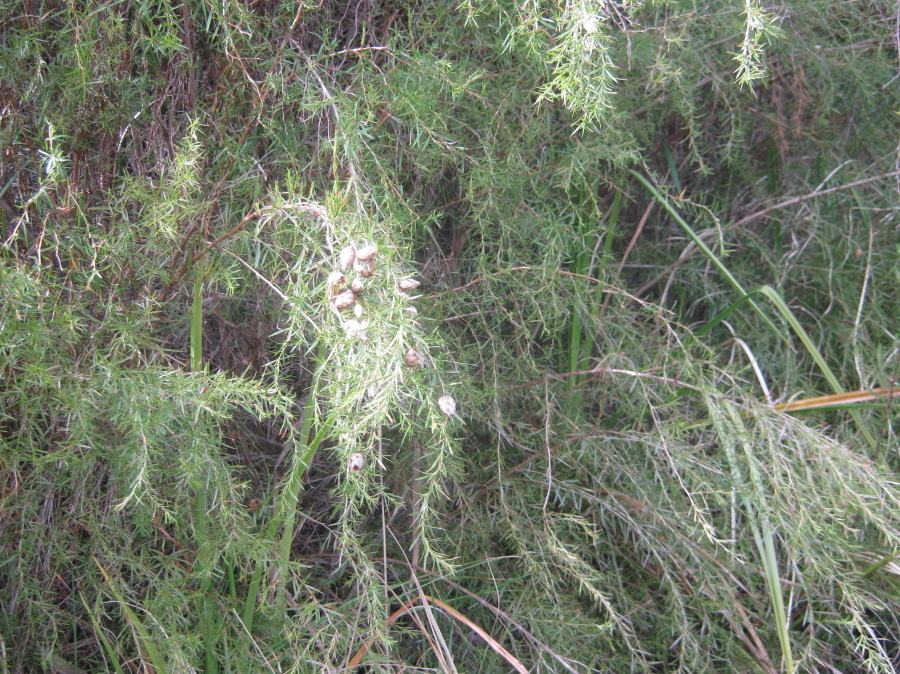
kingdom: Plantae
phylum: Tracheophyta
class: Magnoliopsida
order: Rosales
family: Rosaceae
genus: Cliffortia
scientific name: Cliffortia strobilifera
